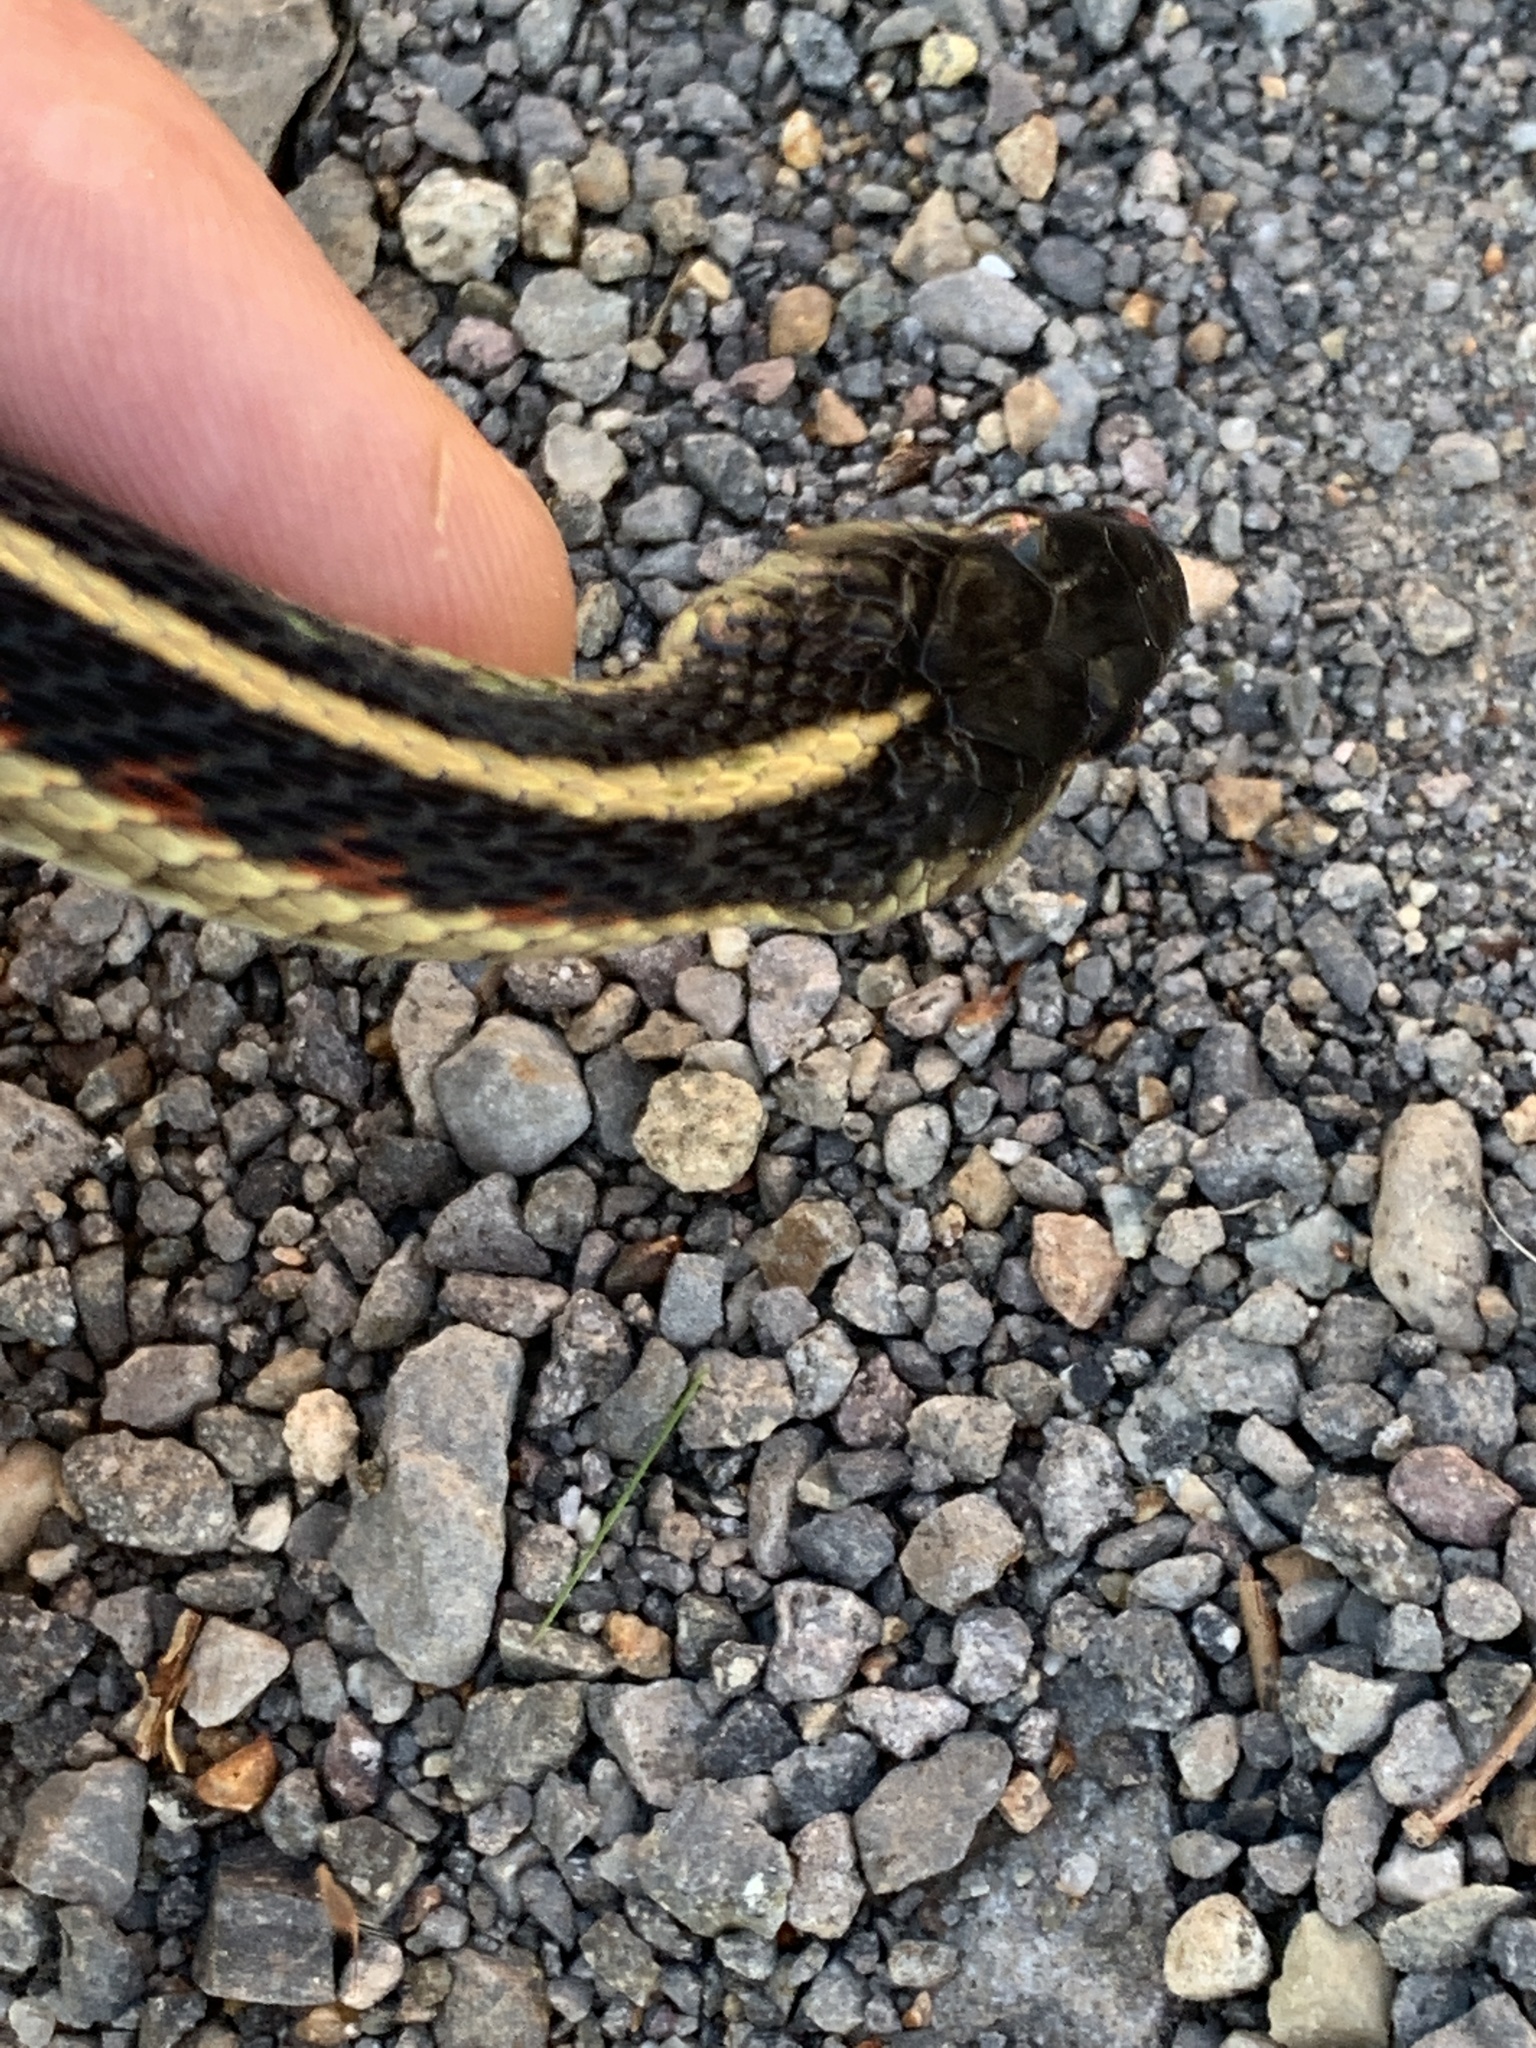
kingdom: Animalia
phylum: Chordata
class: Squamata
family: Colubridae
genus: Thamnophis
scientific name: Thamnophis sirtalis
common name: Common garter snake
